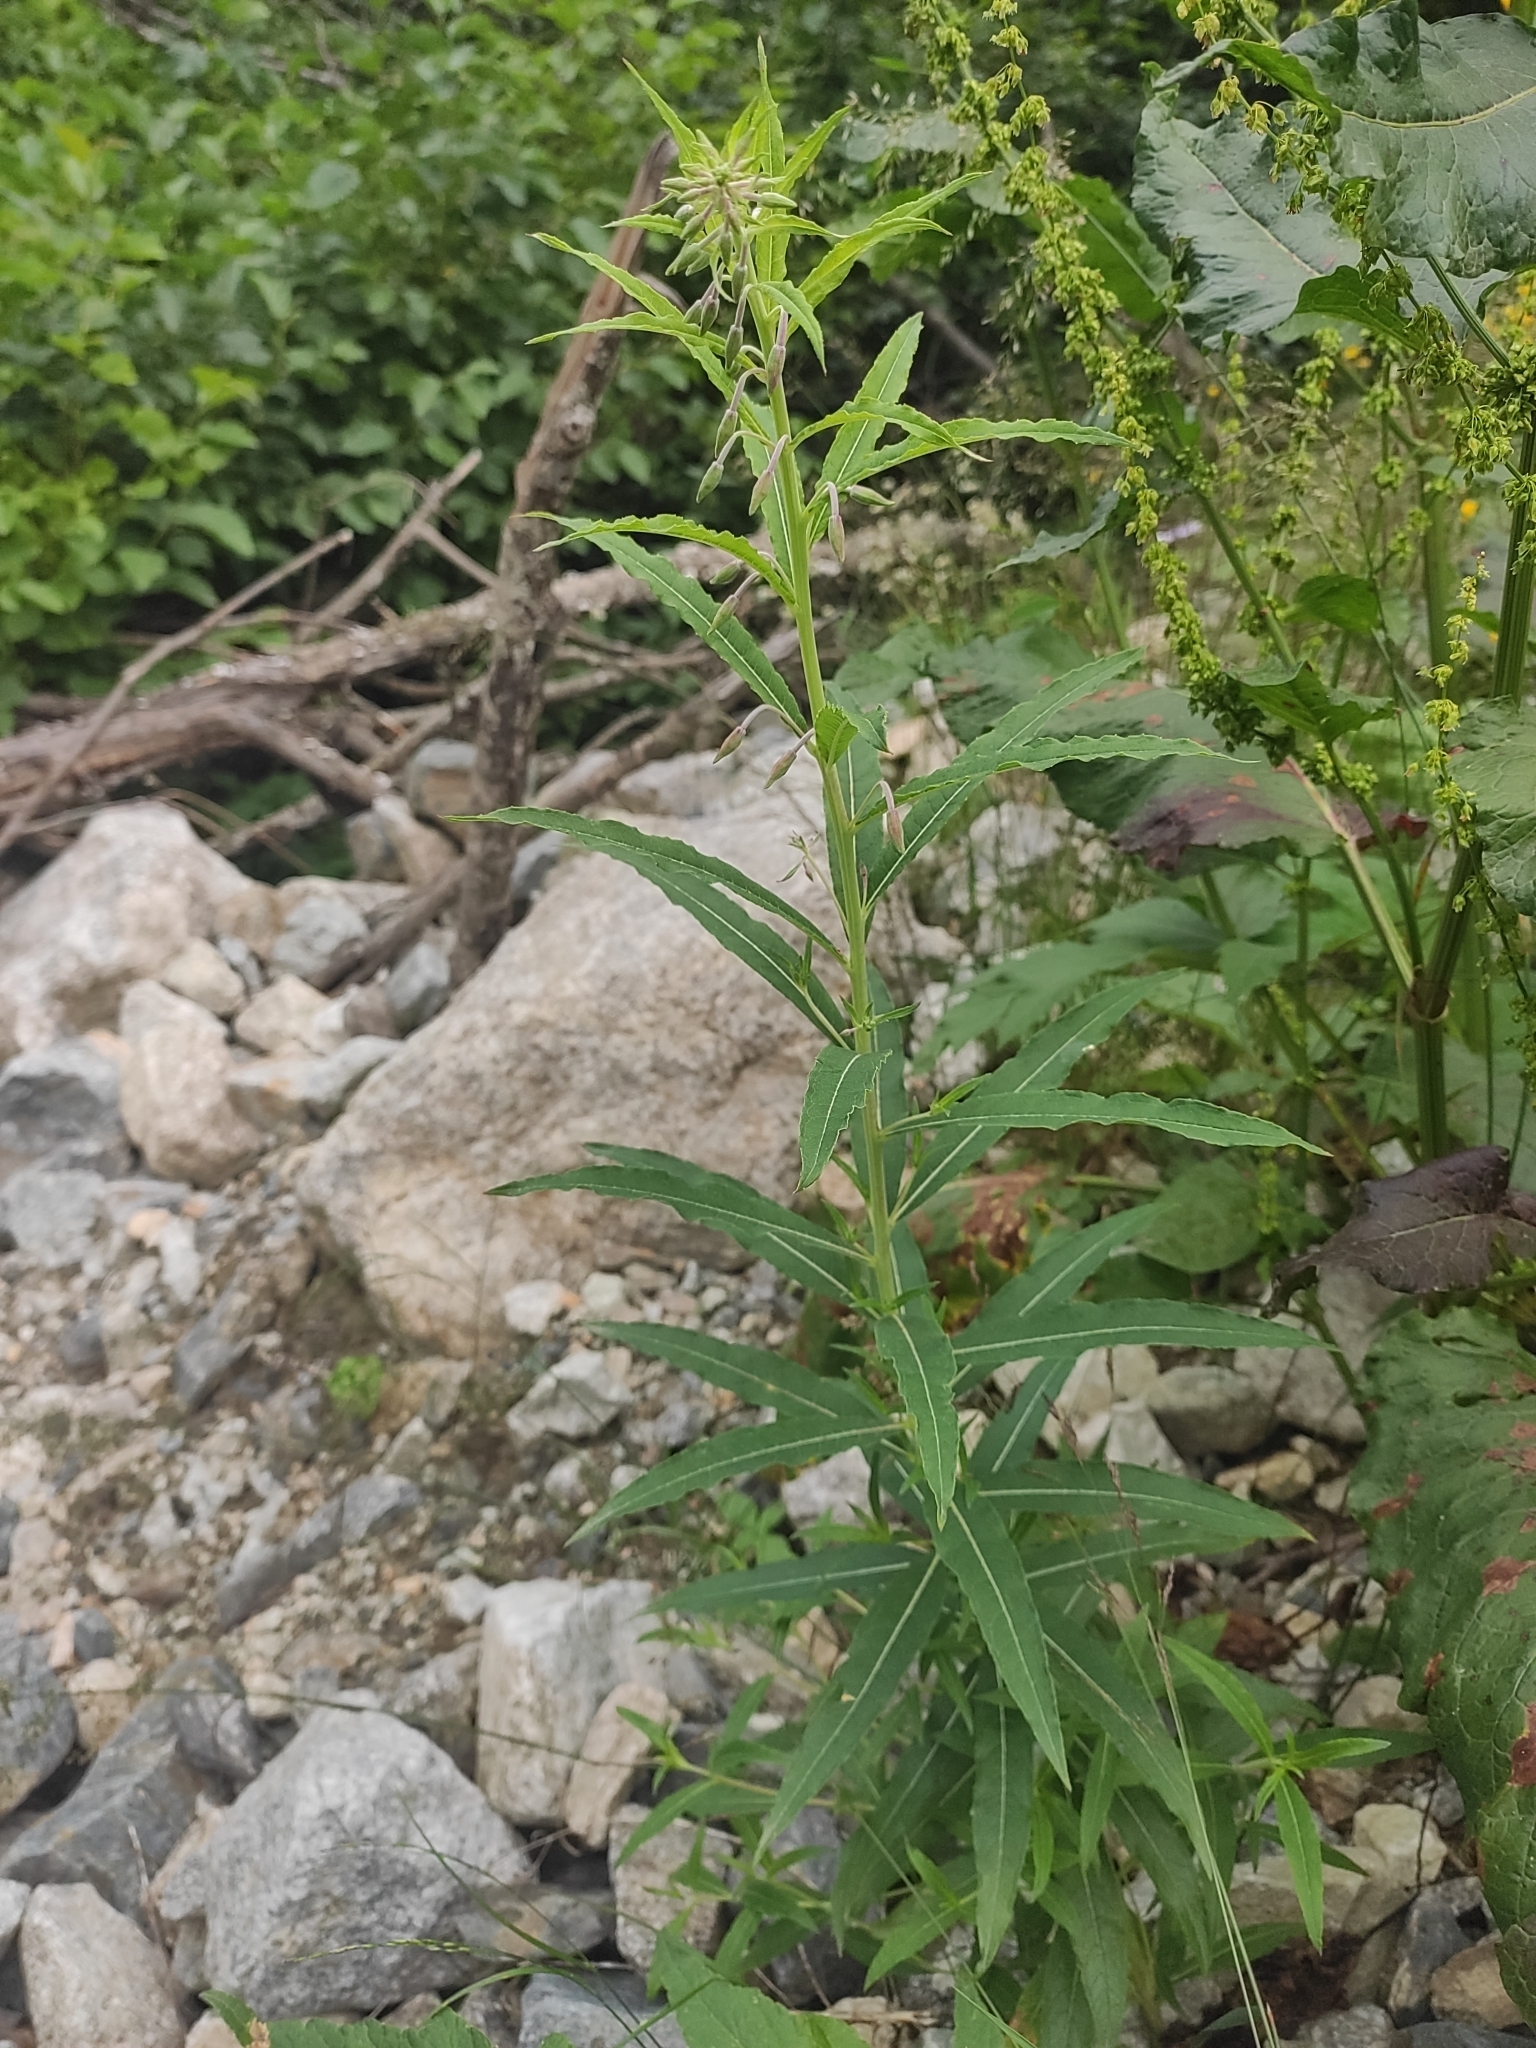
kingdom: Plantae
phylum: Tracheophyta
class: Magnoliopsida
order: Myrtales
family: Onagraceae
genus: Chamaenerion
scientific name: Chamaenerion angustifolium
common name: Fireweed
